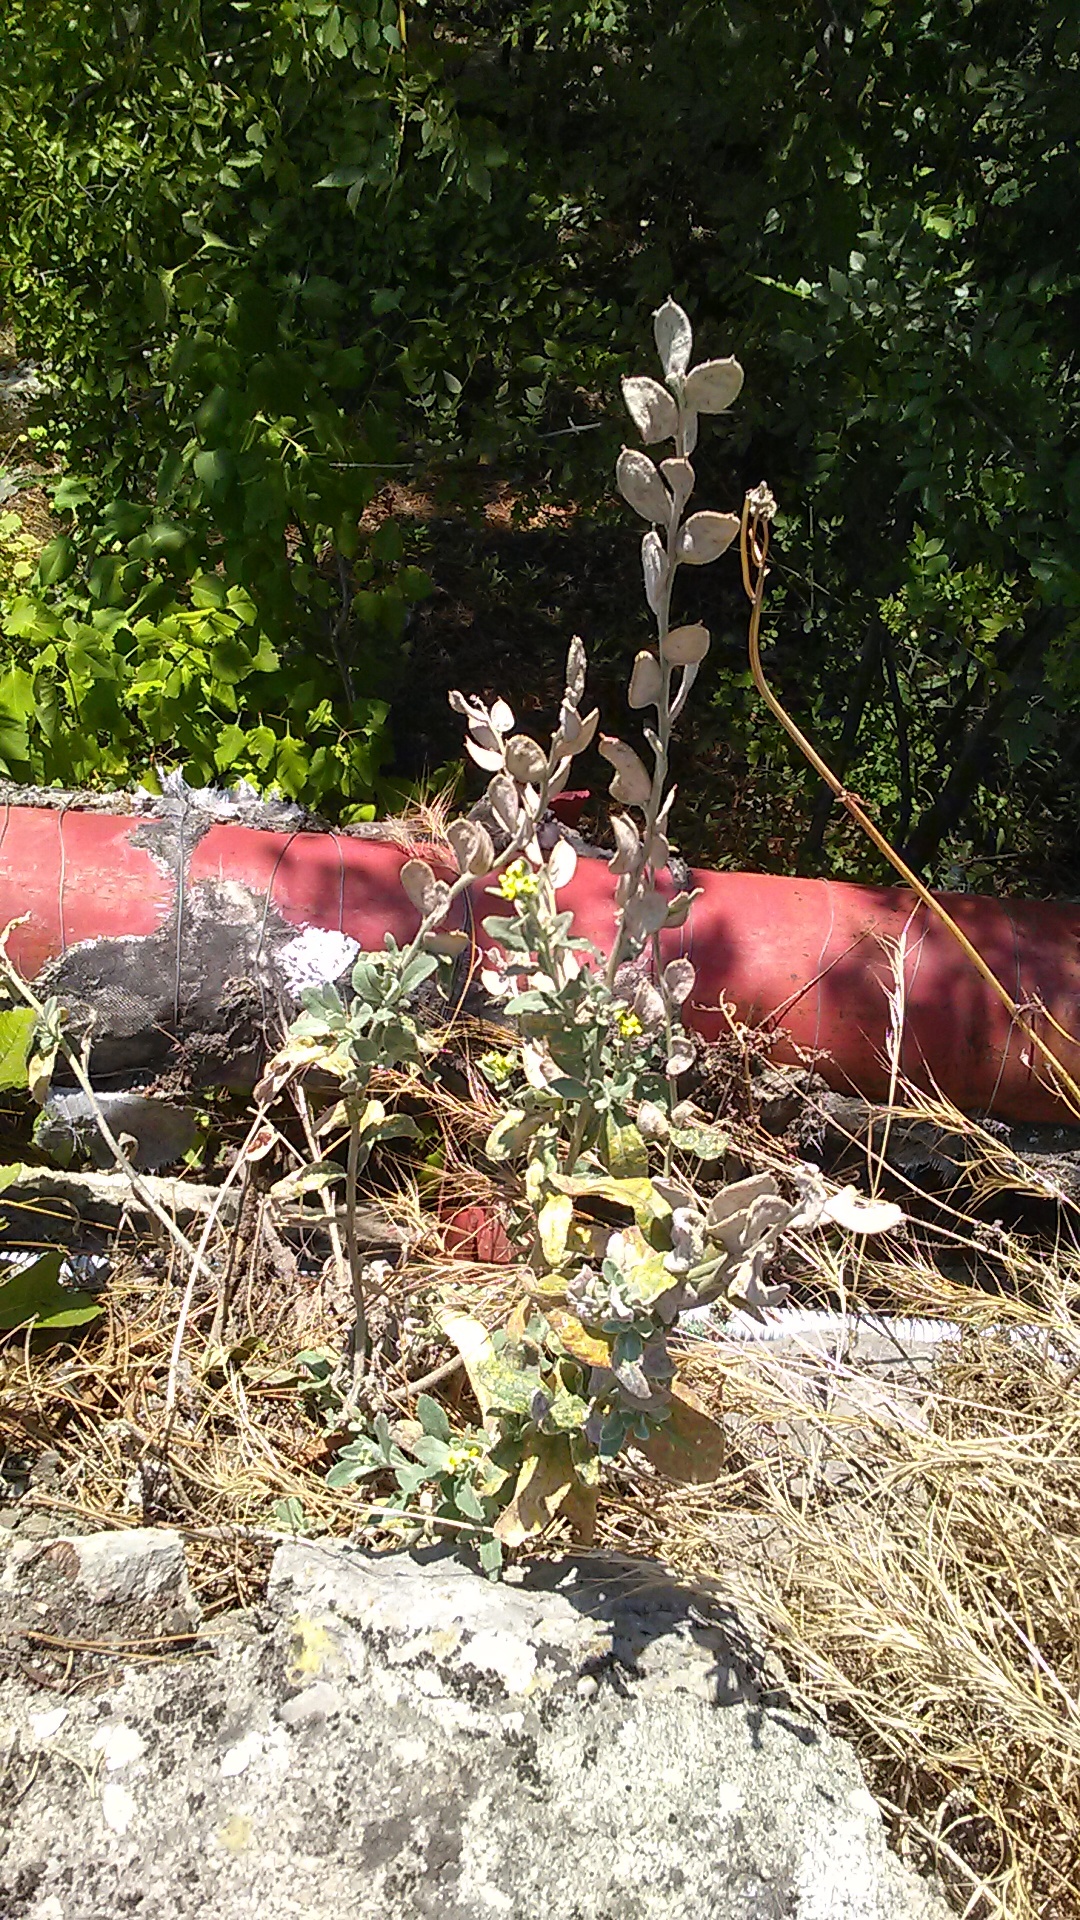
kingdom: Plantae
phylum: Tracheophyta
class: Magnoliopsida
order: Brassicales
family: Brassicaceae
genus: Fibigia
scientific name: Fibigia clypeata
